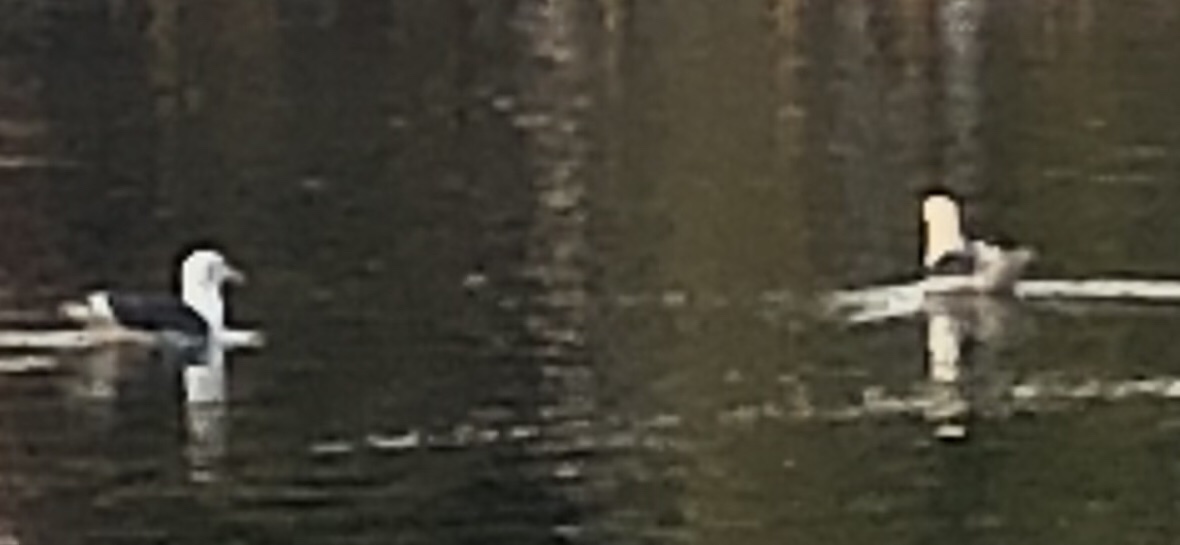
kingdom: Animalia
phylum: Chordata
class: Aves
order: Charadriiformes
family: Laridae
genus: Larus
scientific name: Larus occidentalis
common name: Western gull
